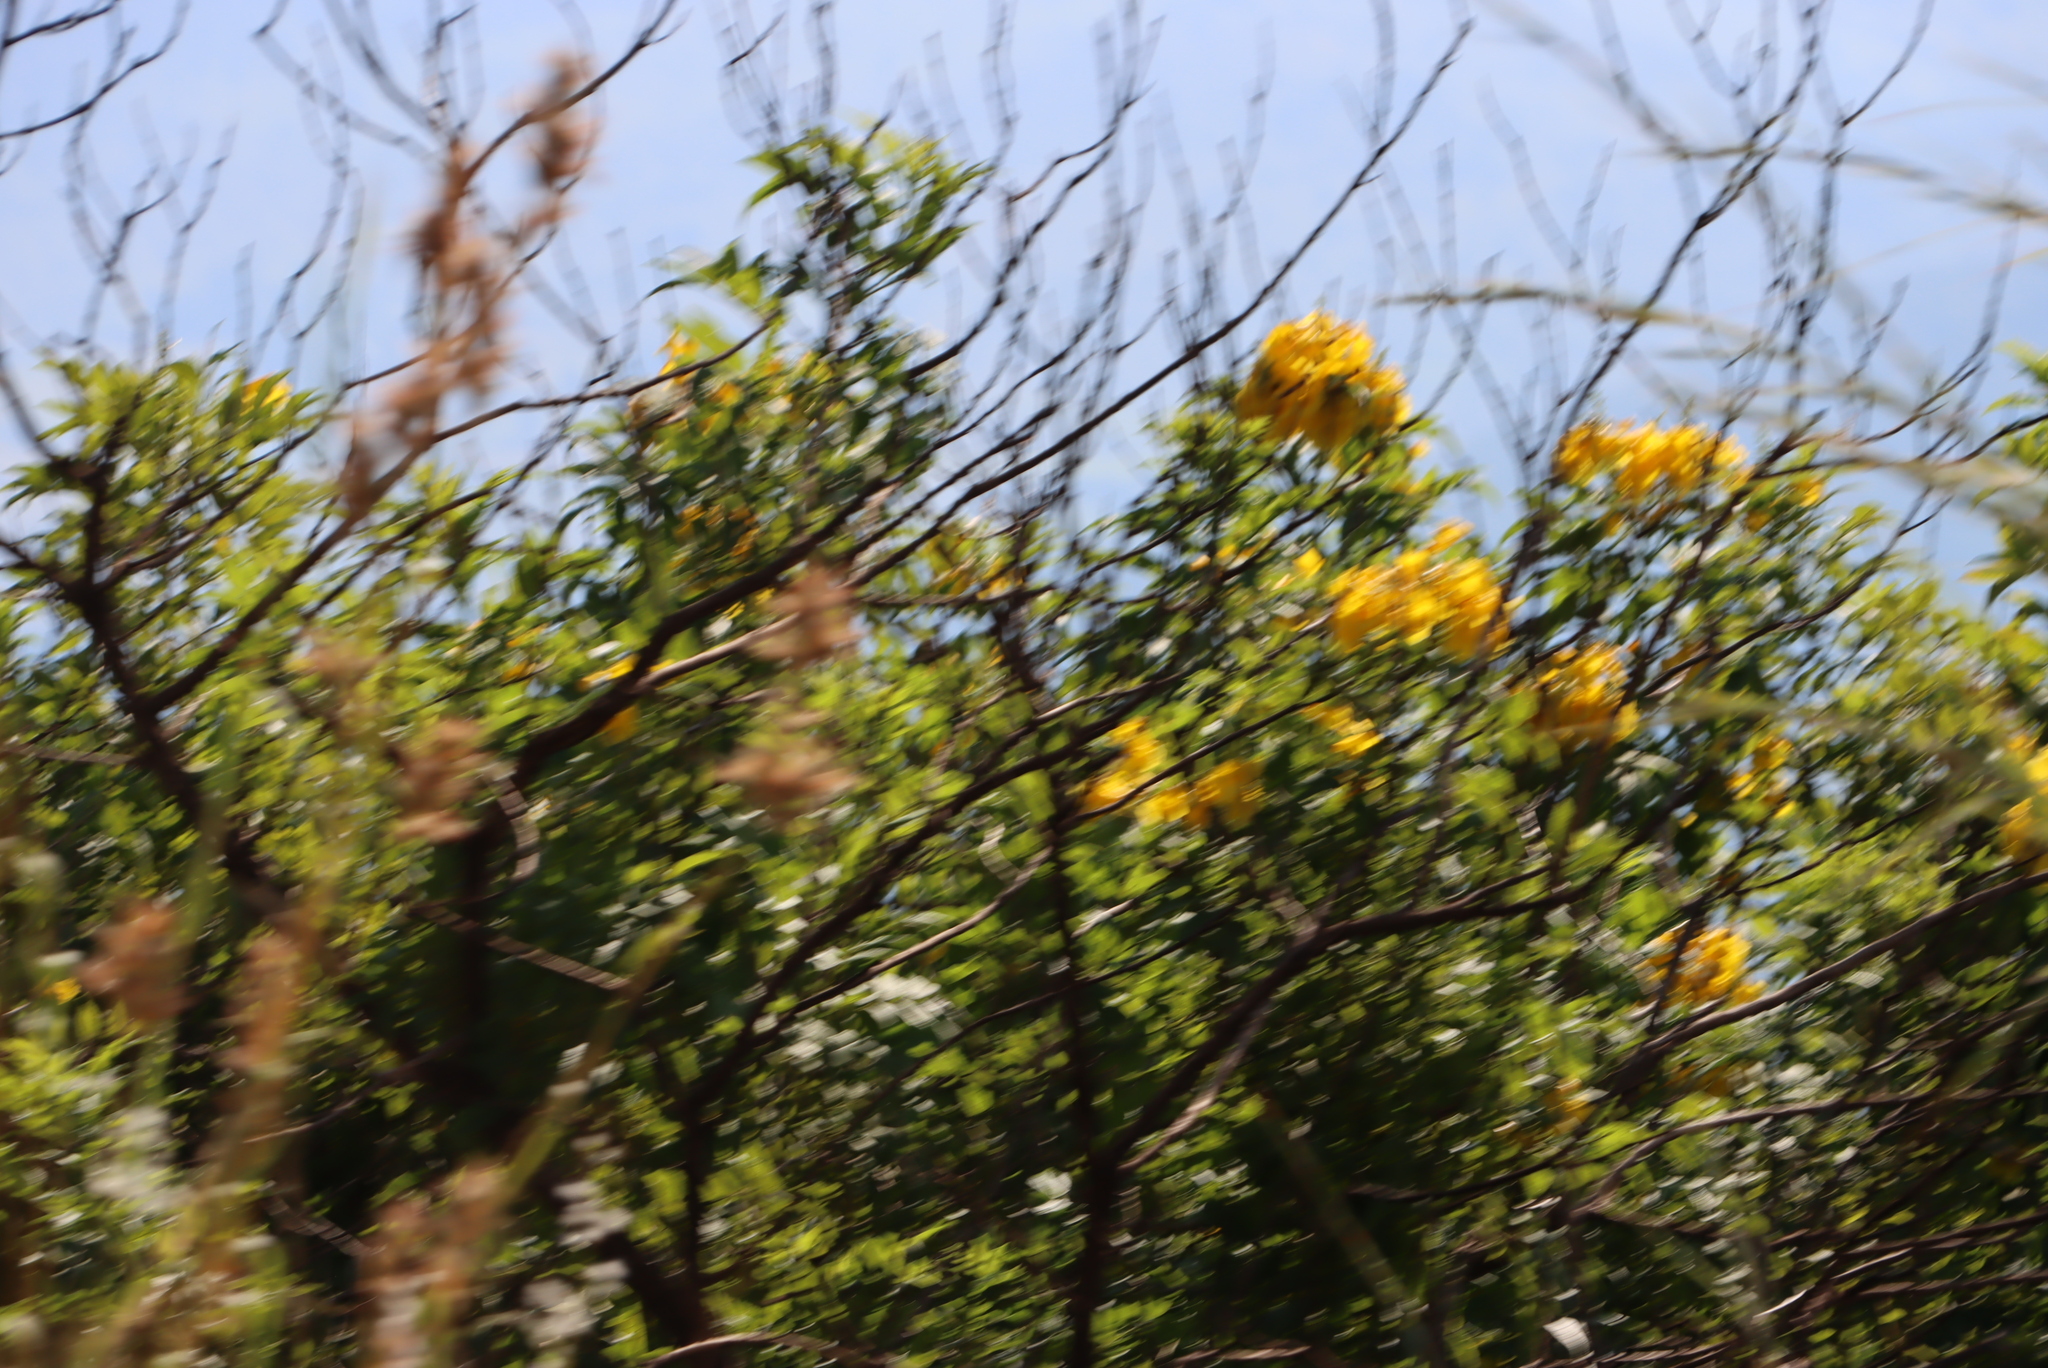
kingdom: Plantae
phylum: Tracheophyta
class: Magnoliopsida
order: Lamiales
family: Bignoniaceae
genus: Tecoma
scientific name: Tecoma stans
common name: Yellow trumpetbush
